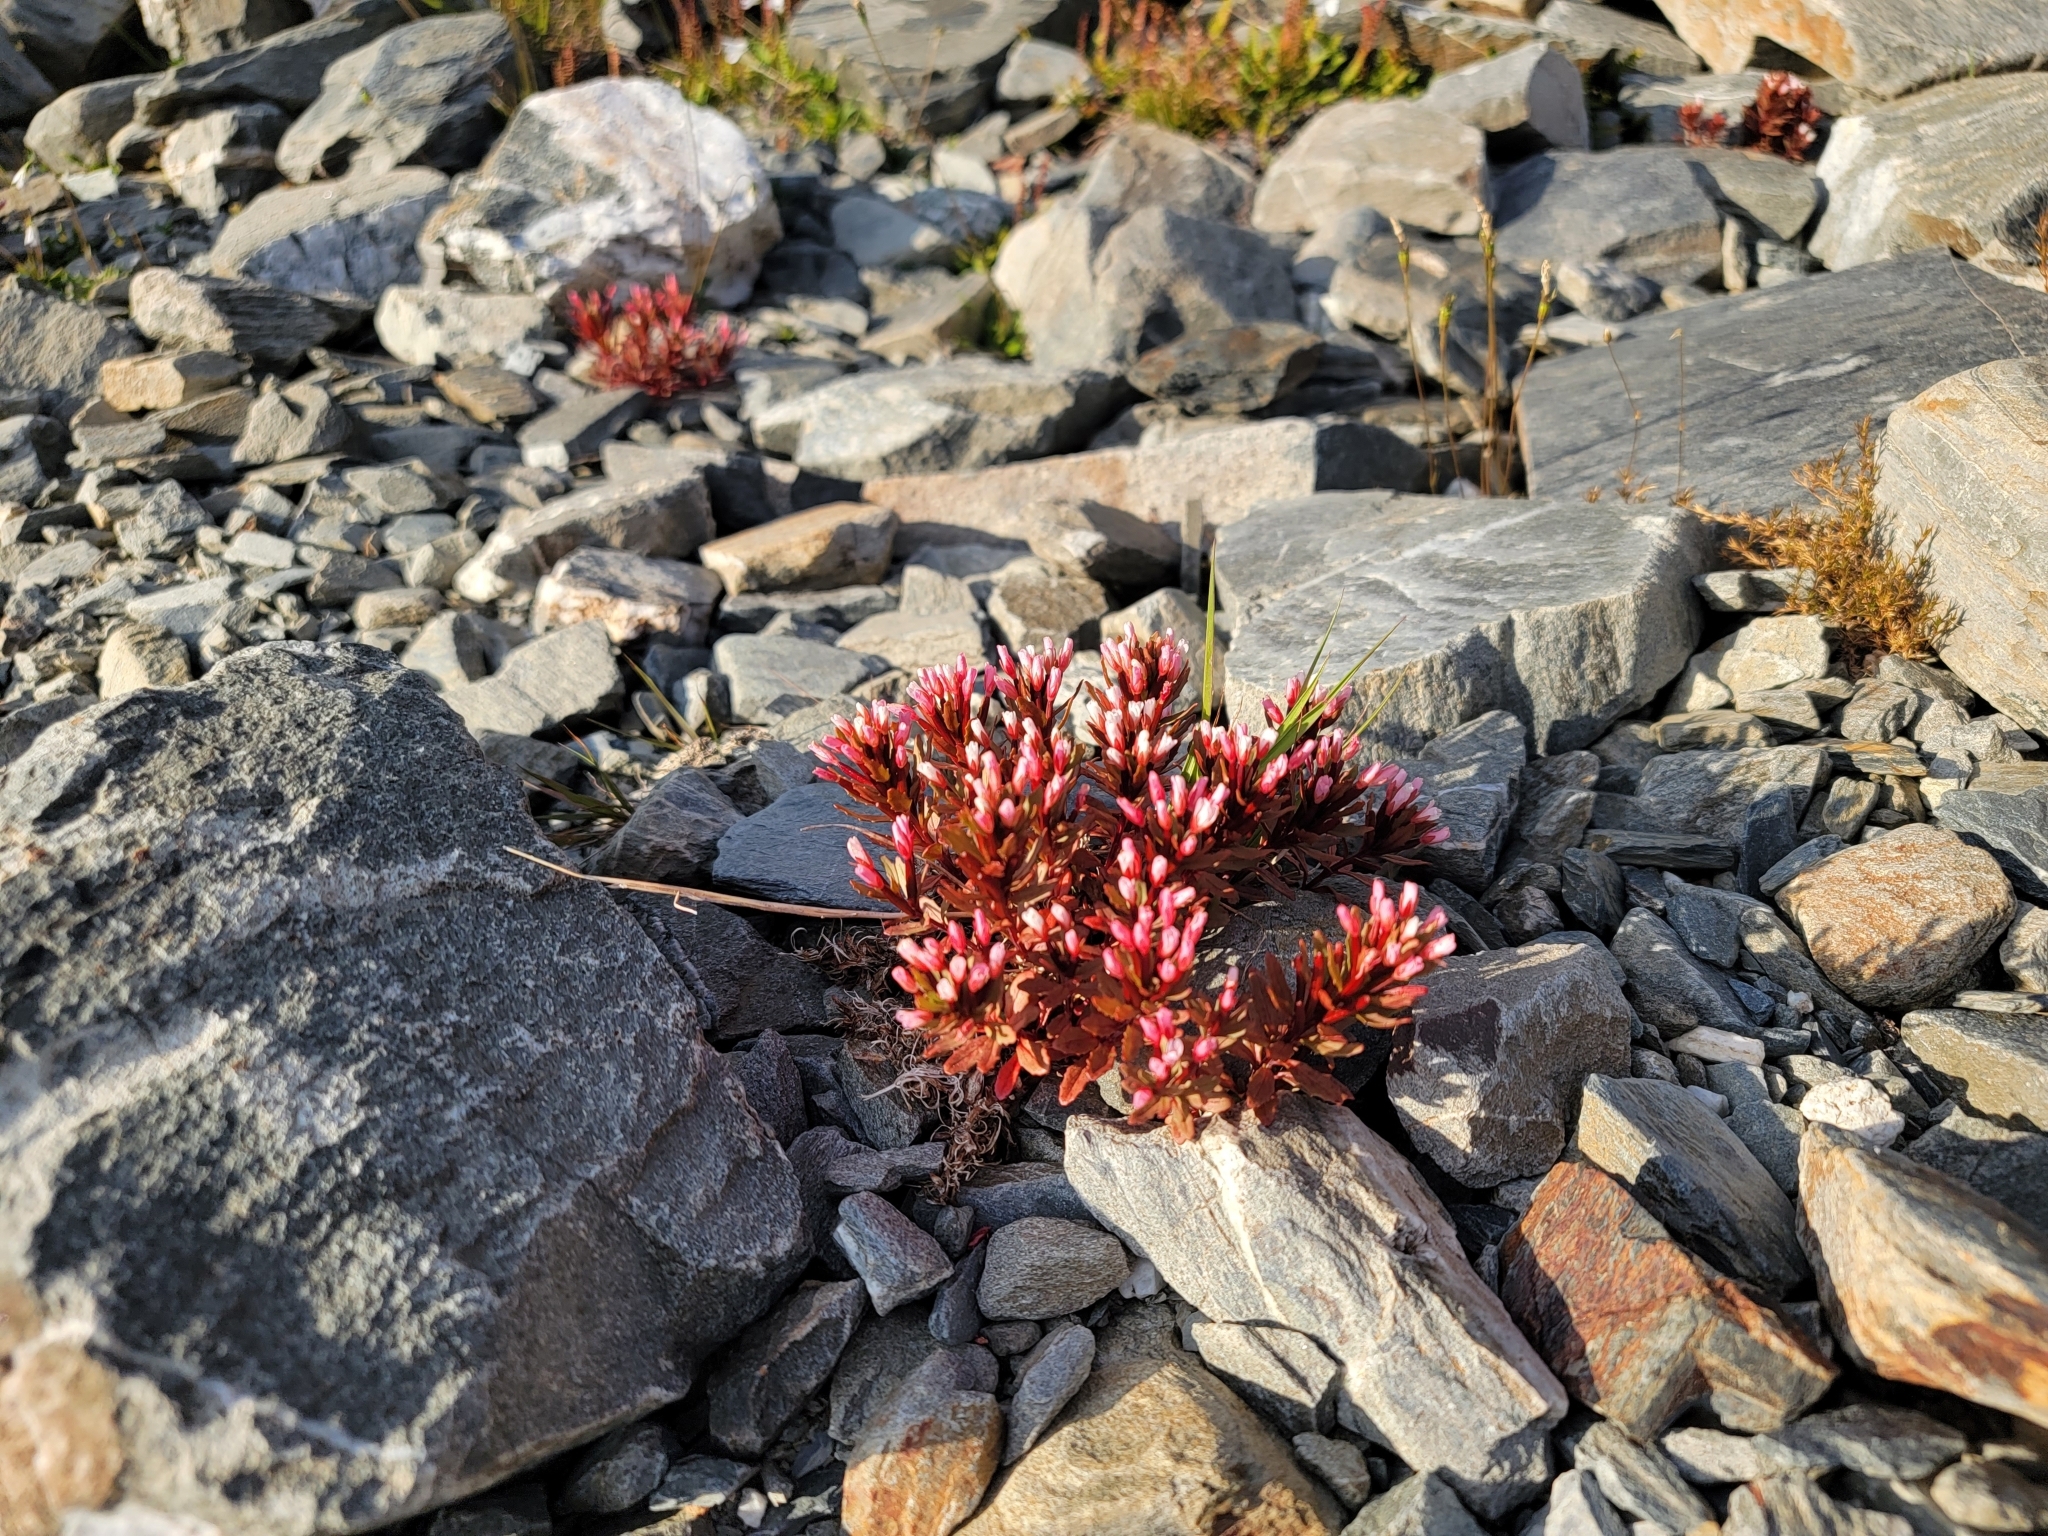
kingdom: Plantae
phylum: Tracheophyta
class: Magnoliopsida
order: Myrtales
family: Onagraceae
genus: Epilobium
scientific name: Epilobium pycnostachyum
